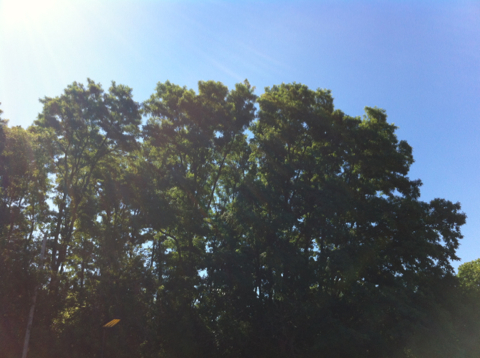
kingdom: Plantae
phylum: Tracheophyta
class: Magnoliopsida
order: Fabales
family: Fabaceae
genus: Robinia
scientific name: Robinia pseudoacacia
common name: Black locust
